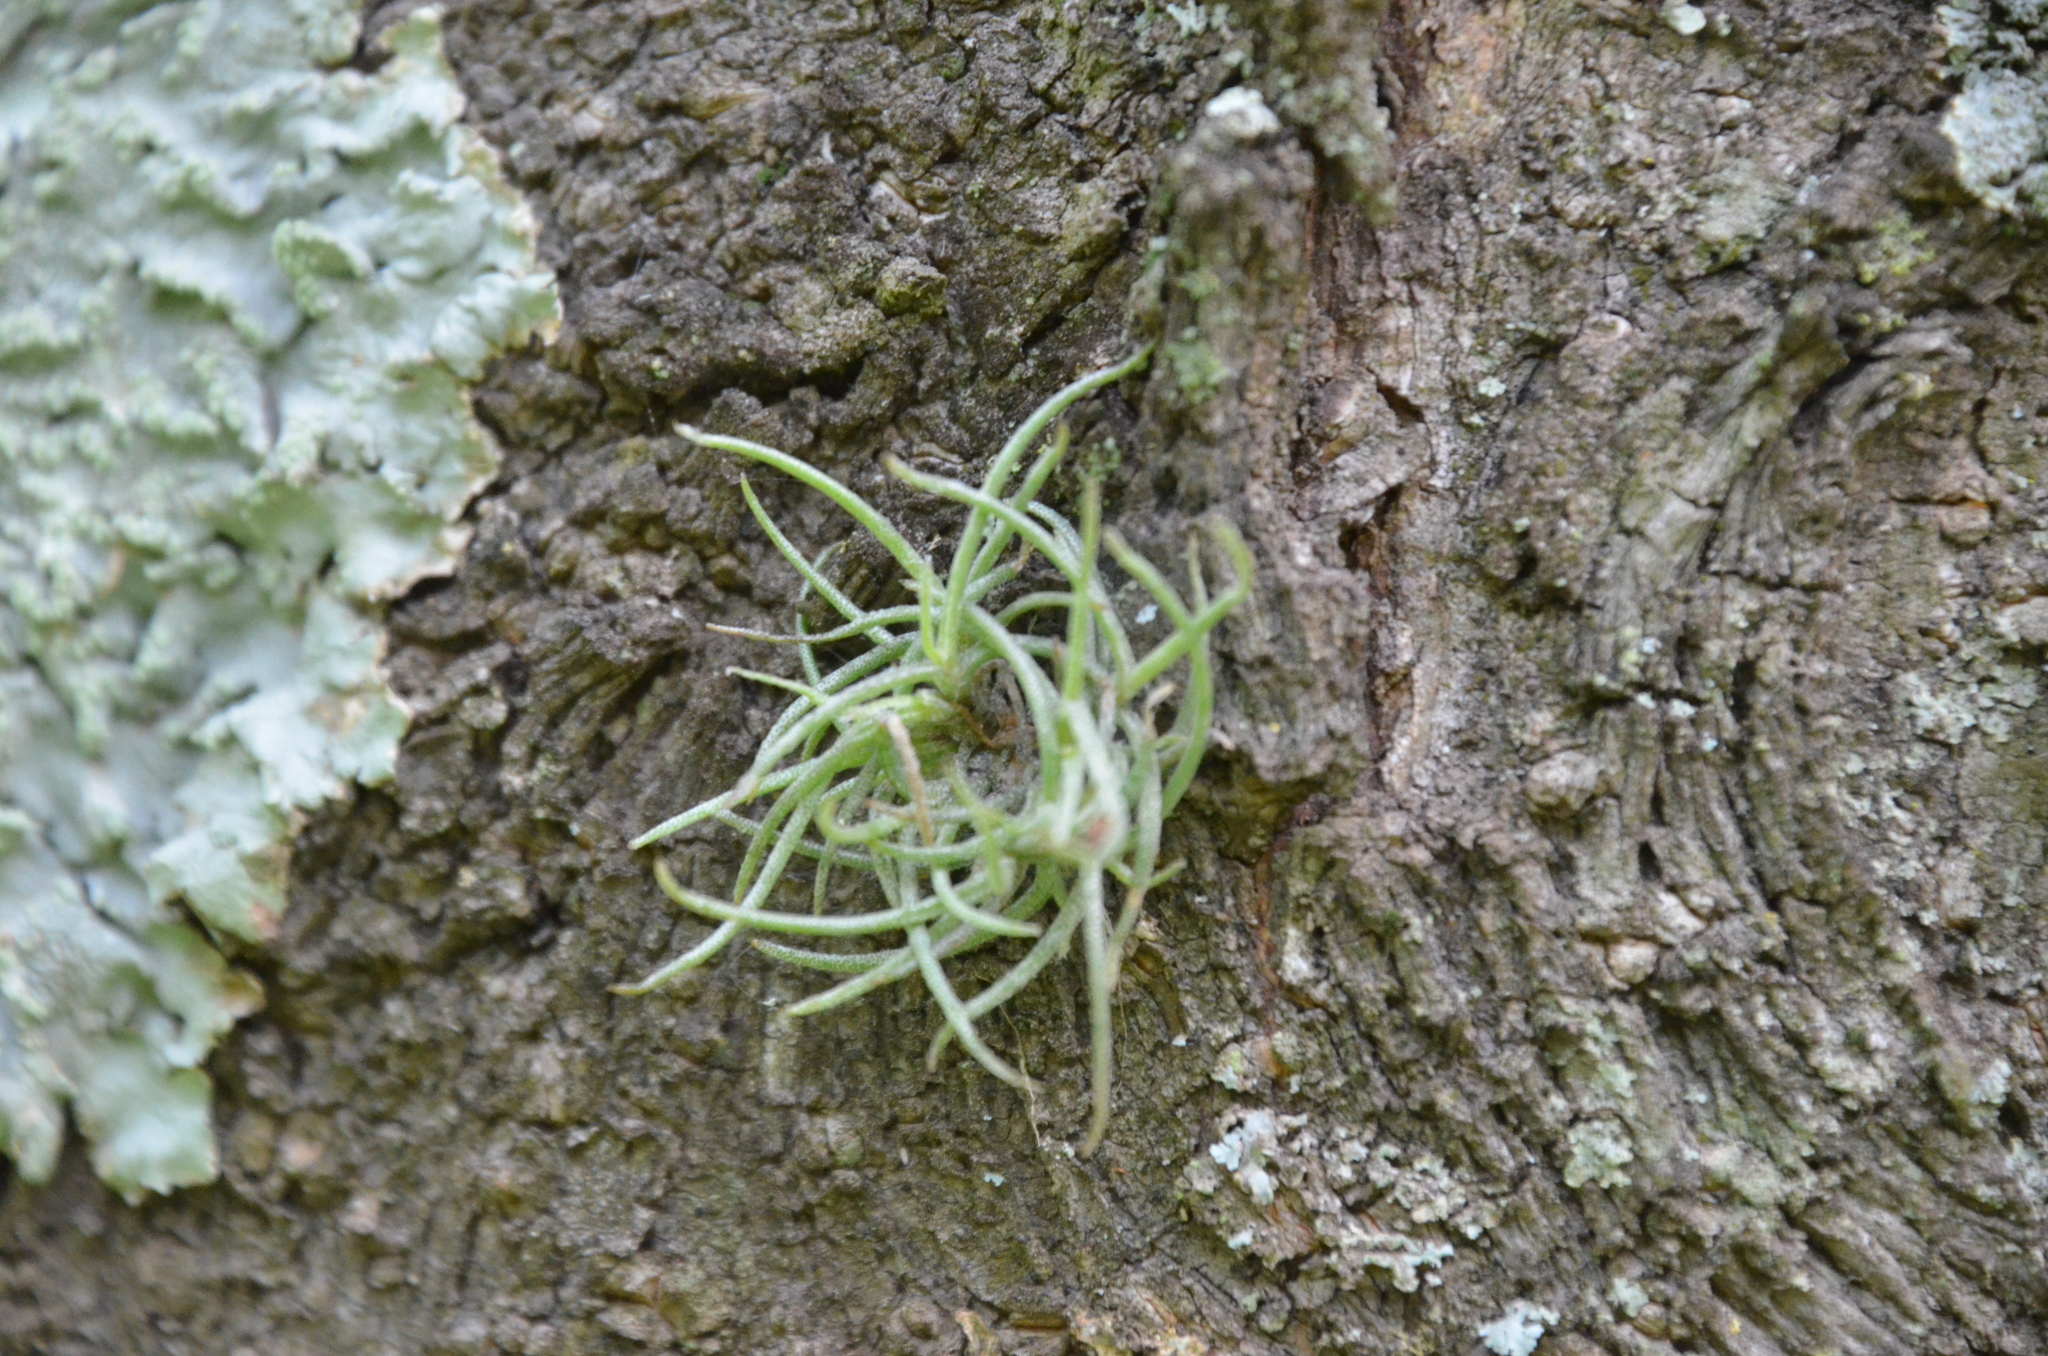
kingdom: Plantae
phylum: Tracheophyta
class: Liliopsida
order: Poales
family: Bromeliaceae
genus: Tillandsia
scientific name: Tillandsia recurvata
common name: Small ballmoss
